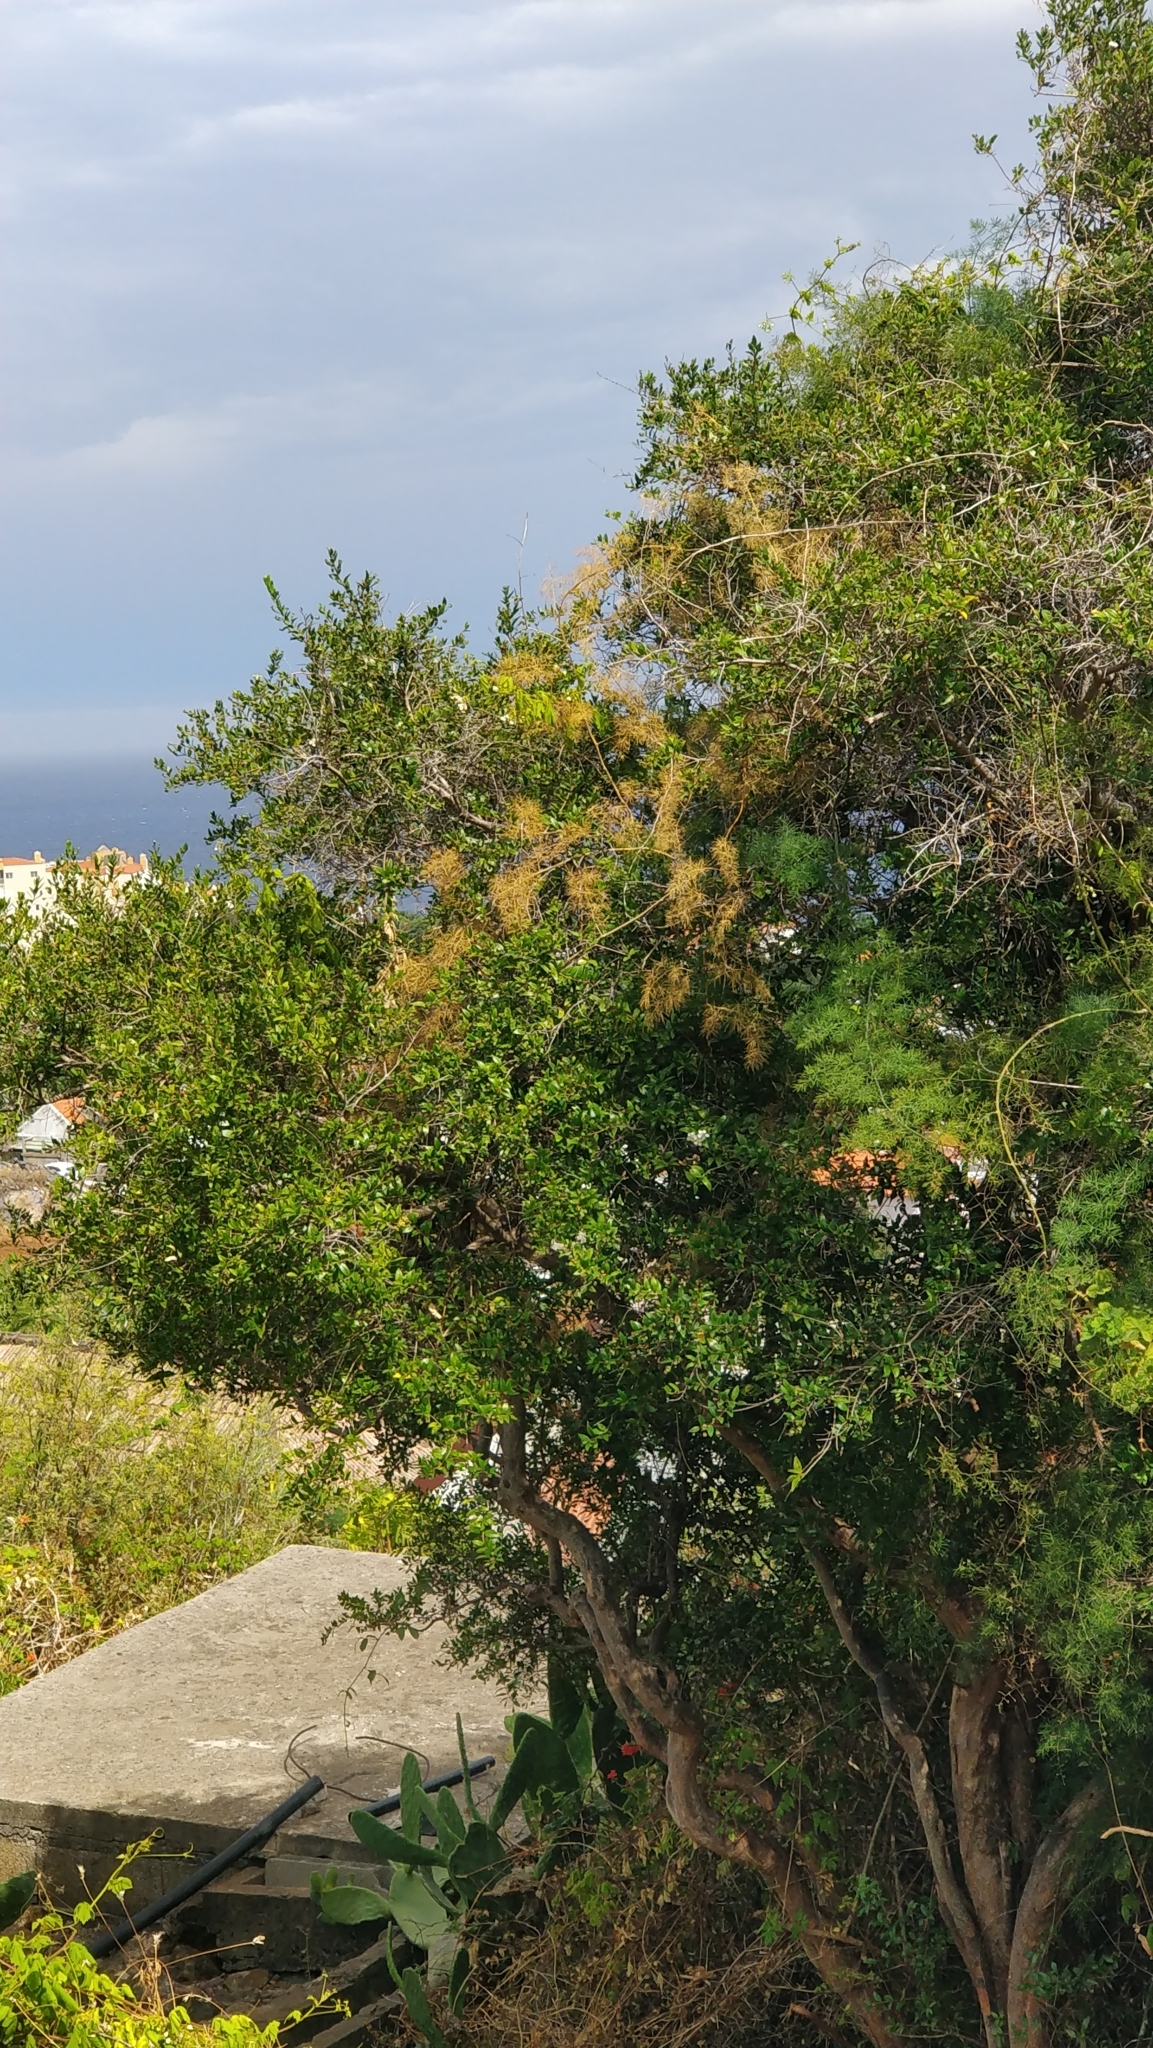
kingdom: Plantae
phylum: Tracheophyta
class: Magnoliopsida
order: Myrtales
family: Myrtaceae
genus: Myrtus
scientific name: Myrtus communis
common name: Myrtle
